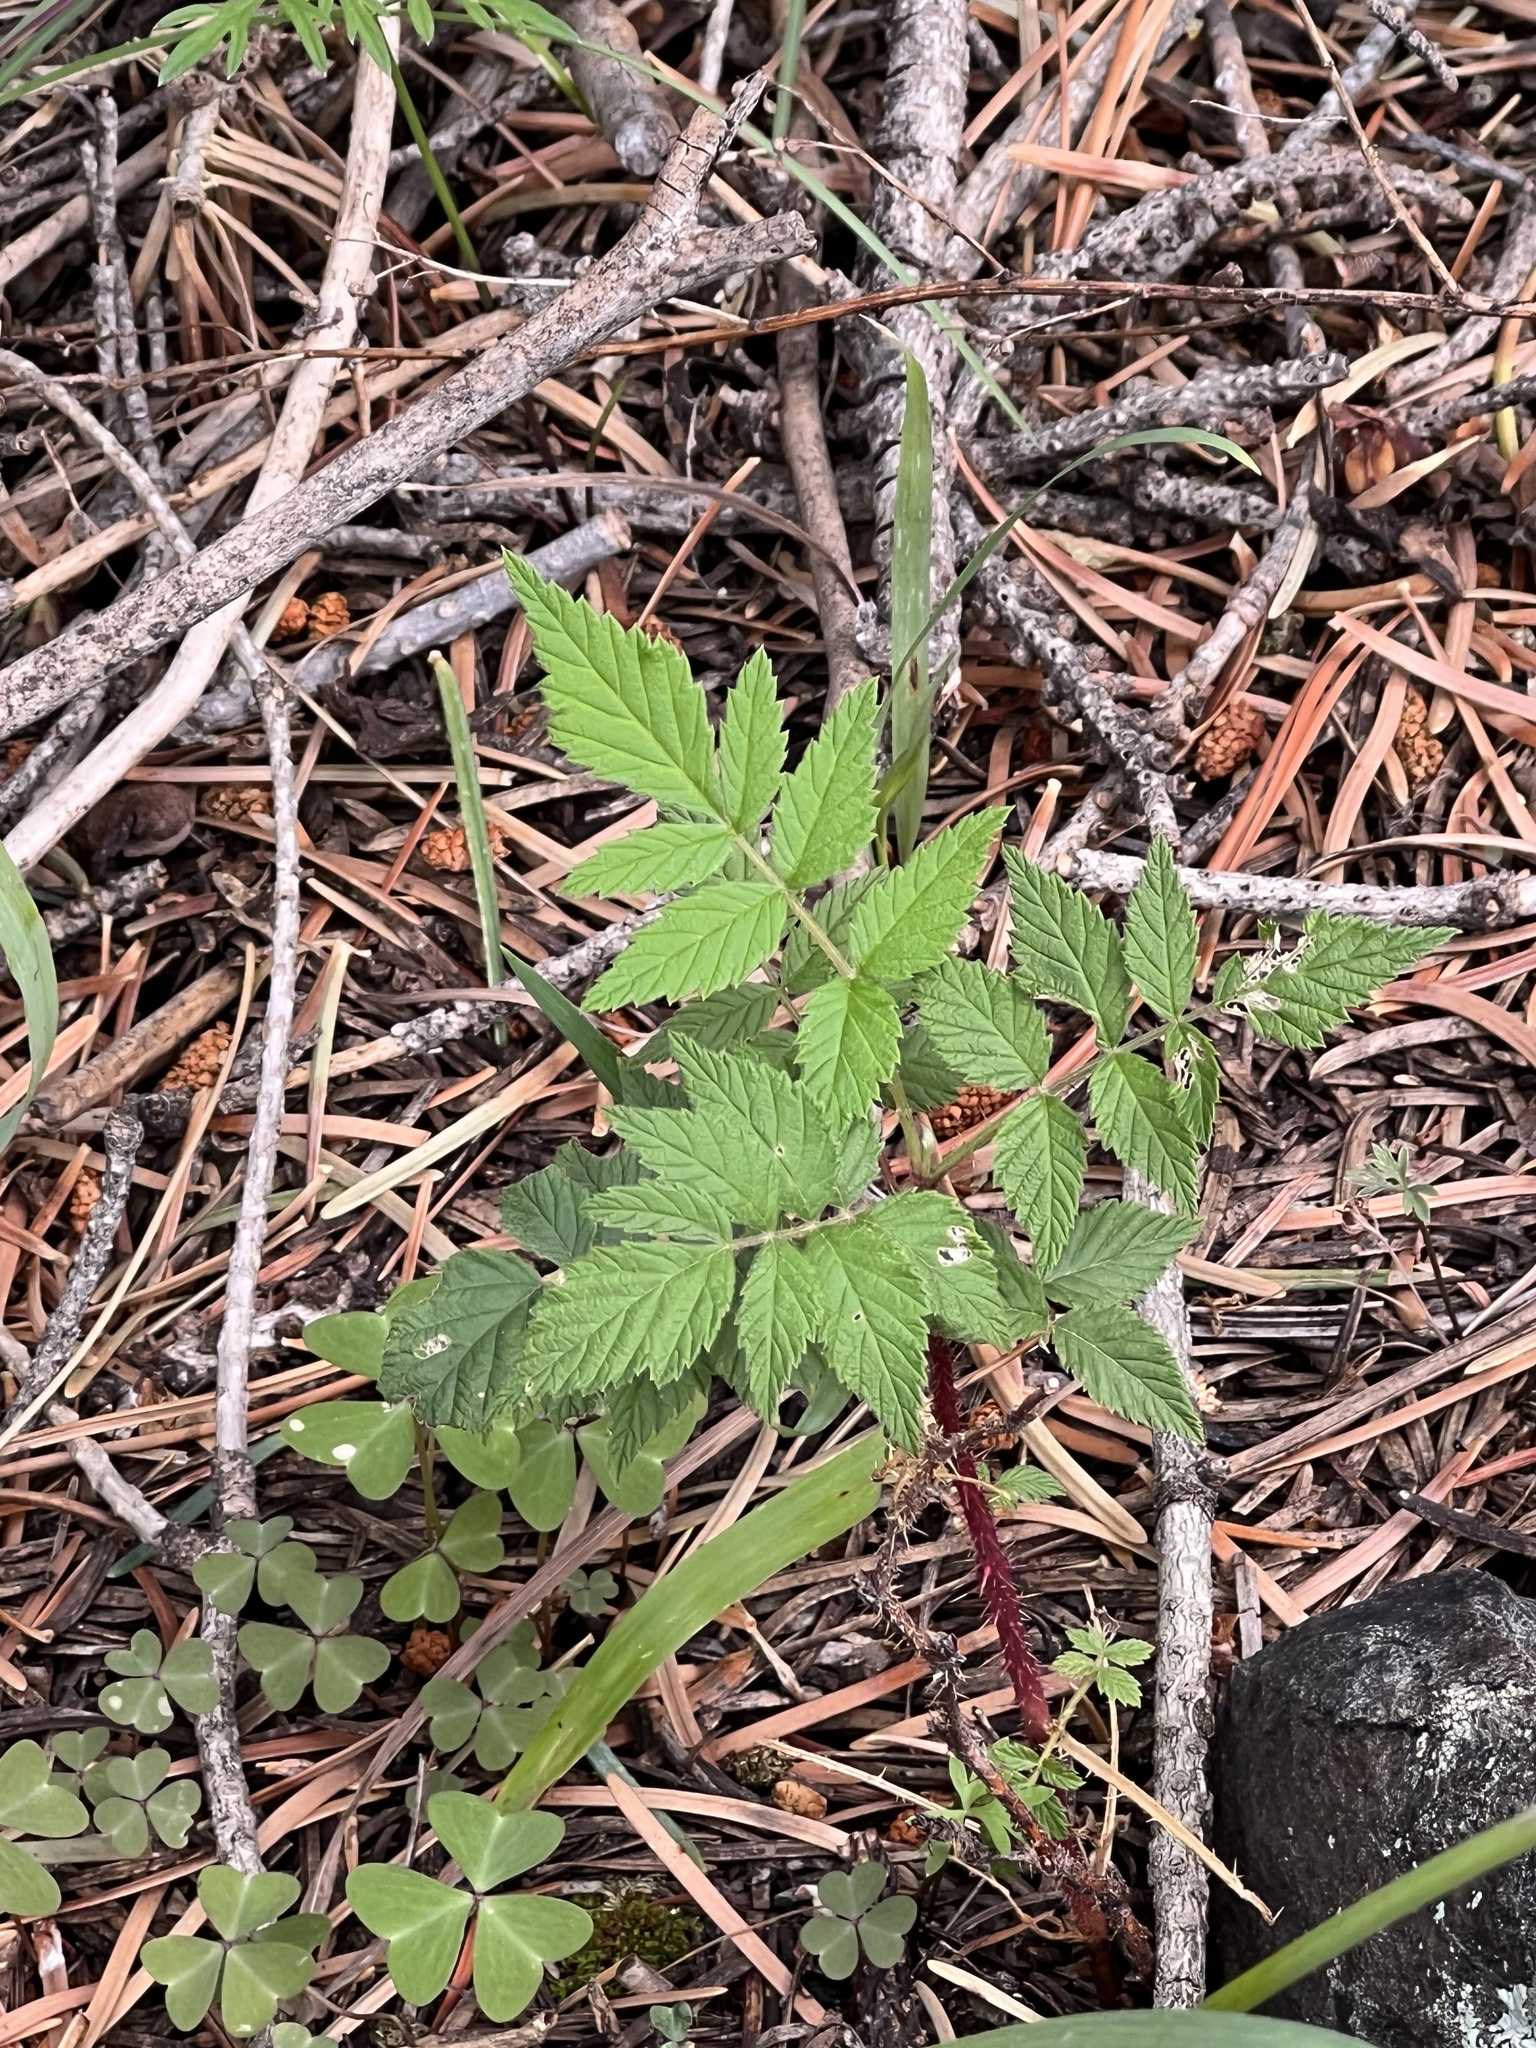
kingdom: Plantae
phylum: Tracheophyta
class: Magnoliopsida
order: Rosales
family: Rosaceae
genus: Rubus
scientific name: Rubus idaeus
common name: Raspberry
